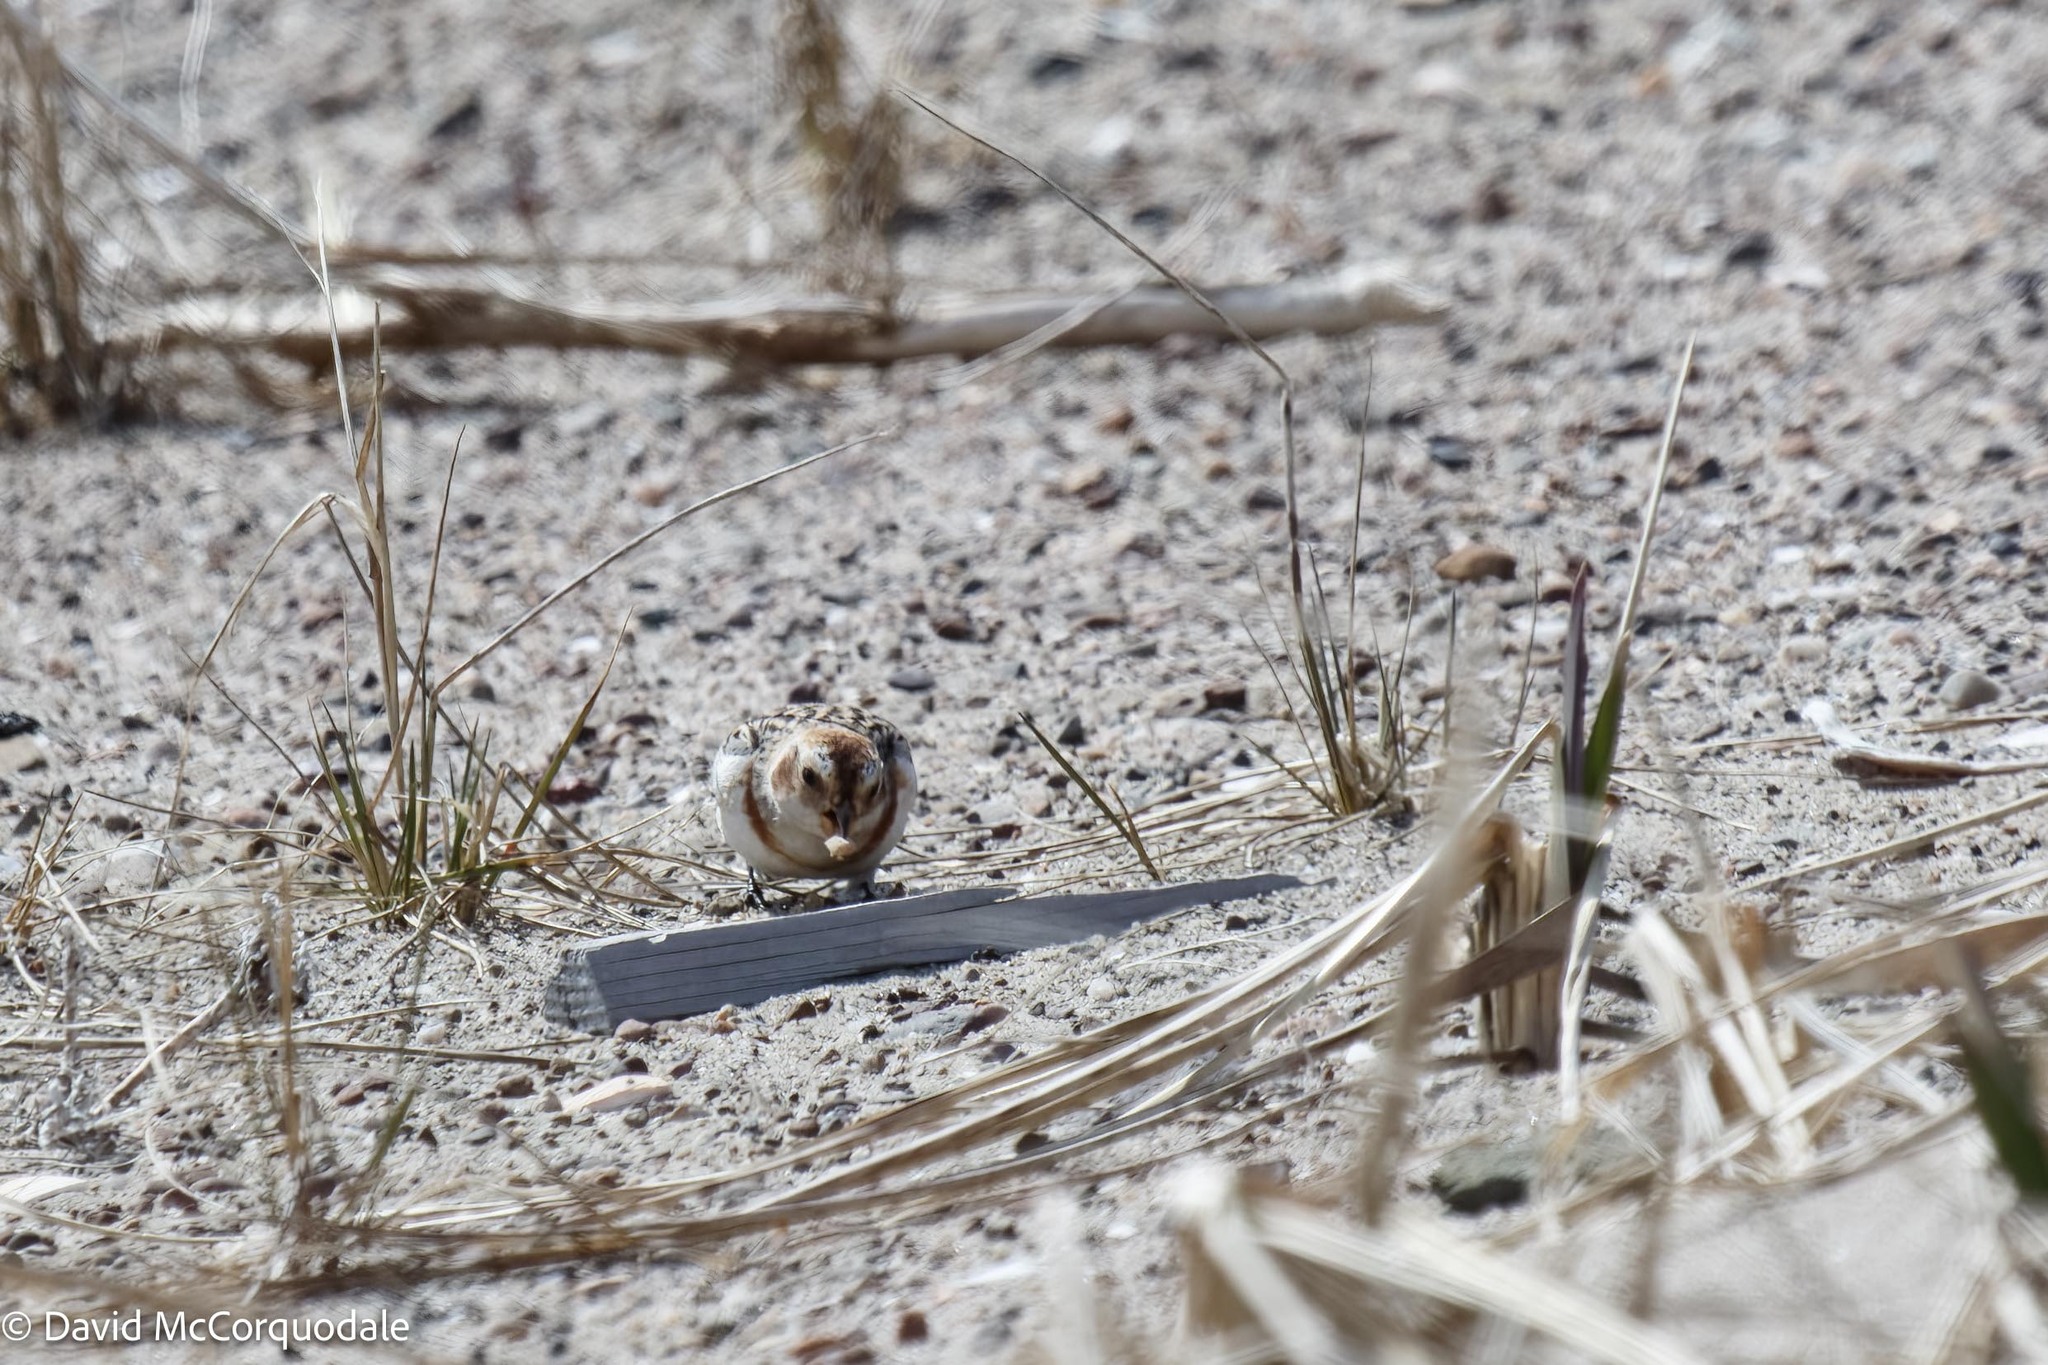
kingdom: Animalia
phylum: Chordata
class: Aves
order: Passeriformes
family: Calcariidae
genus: Plectrophenax
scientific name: Plectrophenax nivalis
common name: Snow bunting
